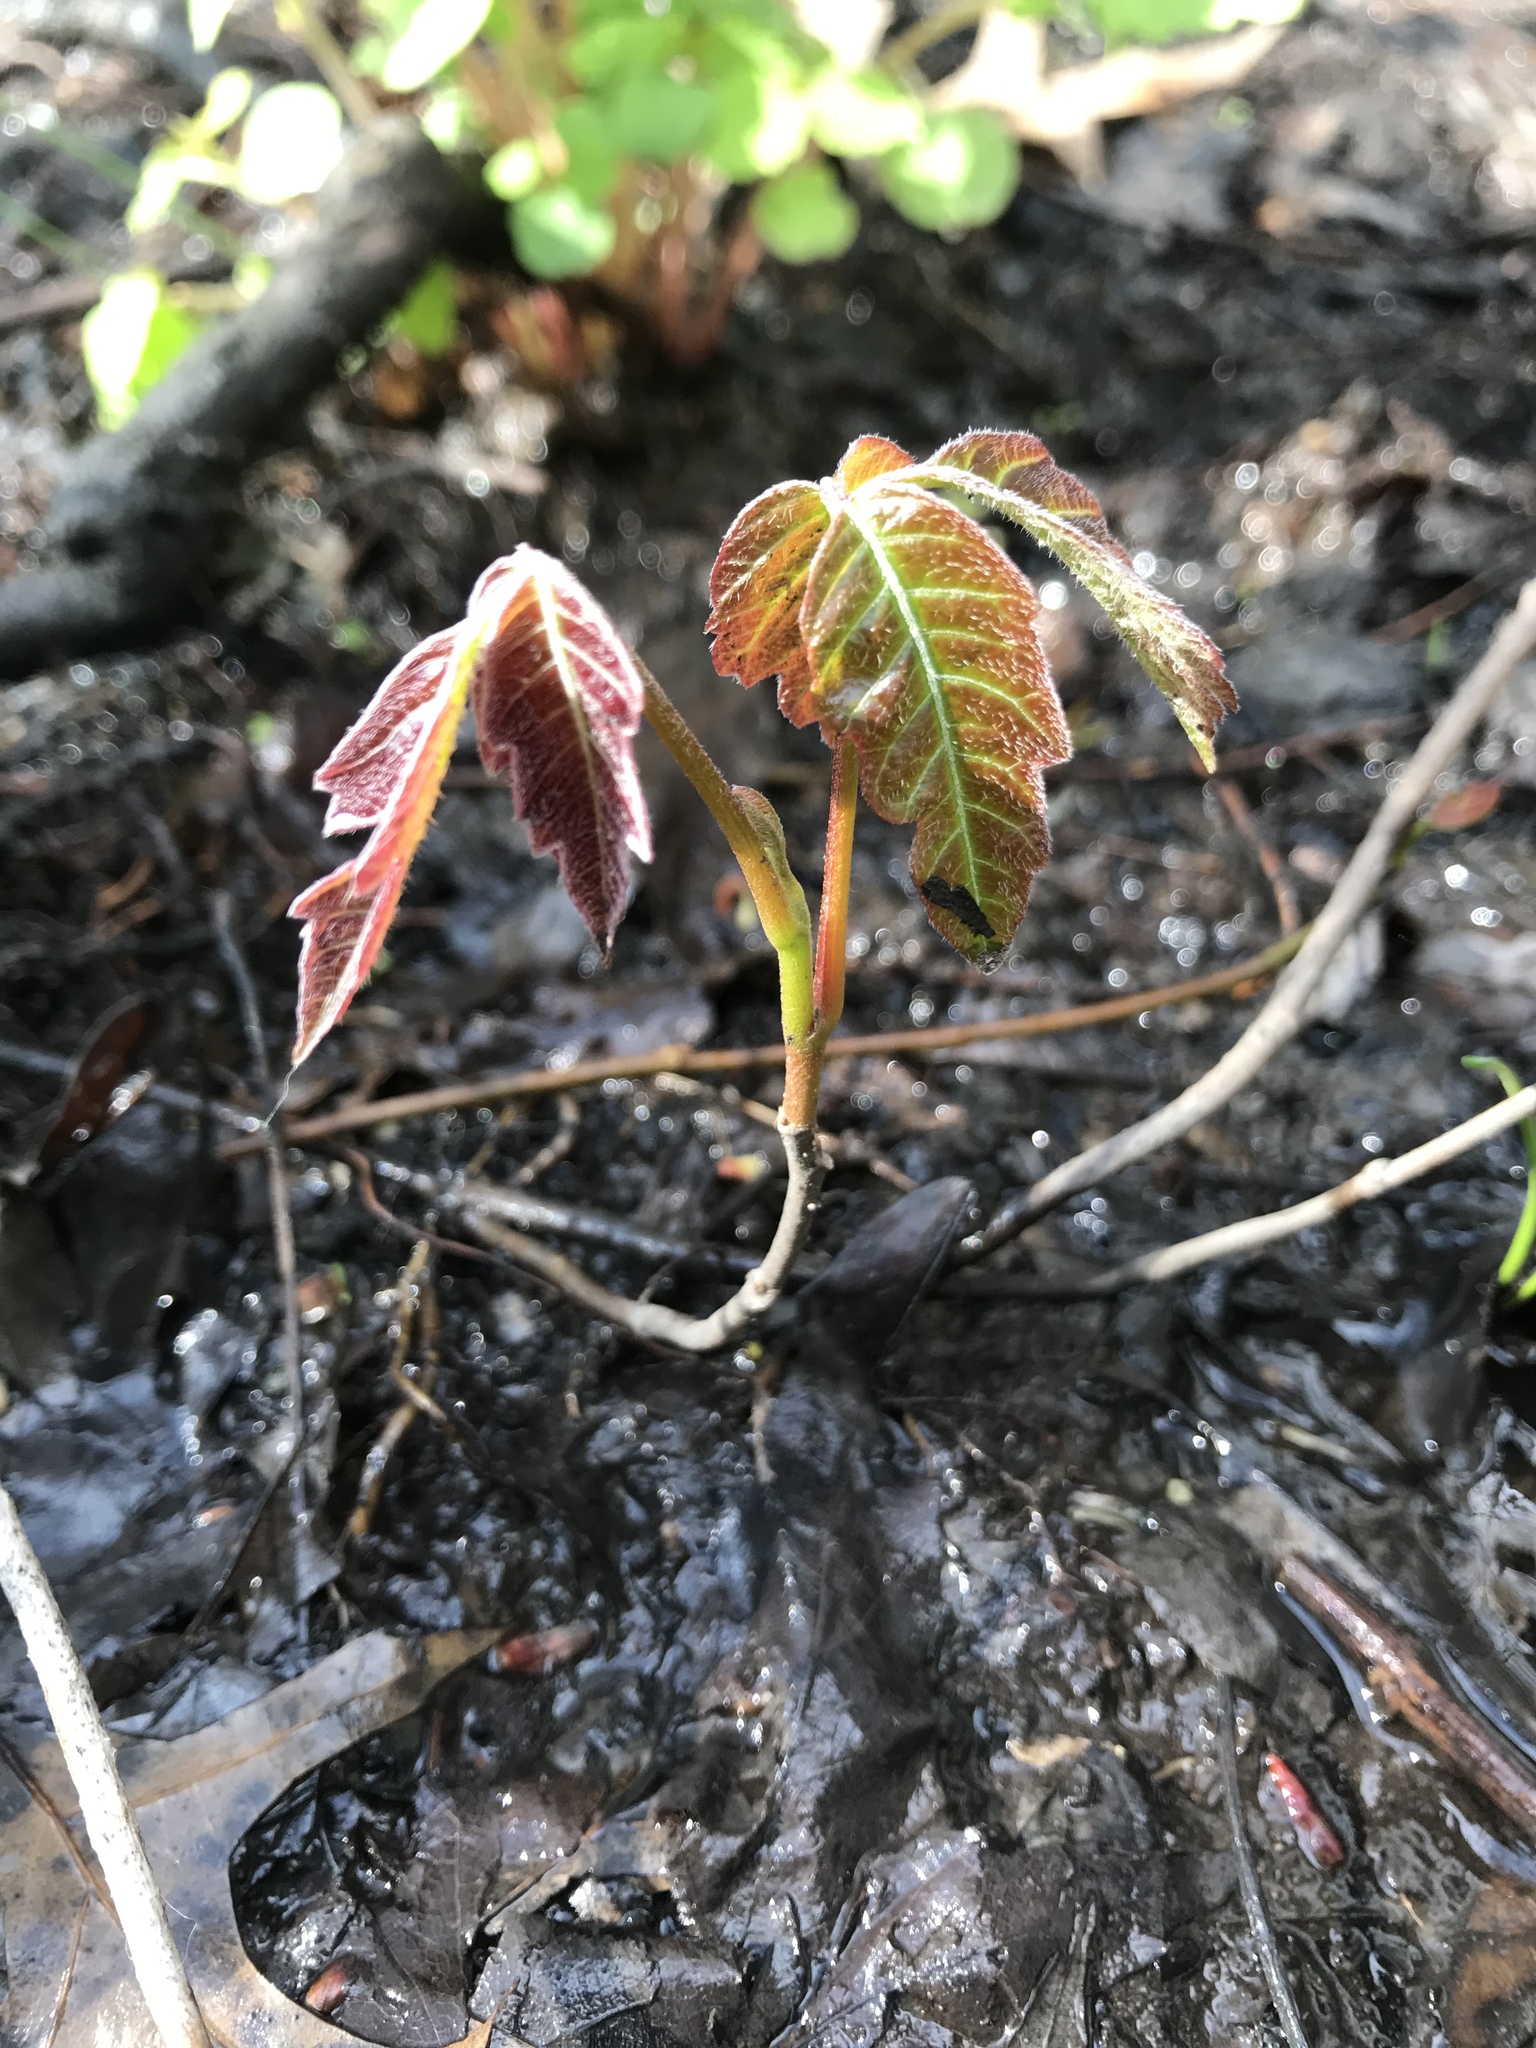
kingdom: Plantae
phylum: Tracheophyta
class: Magnoliopsida
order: Sapindales
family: Anacardiaceae
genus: Toxicodendron
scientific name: Toxicodendron radicans
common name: Poison ivy
